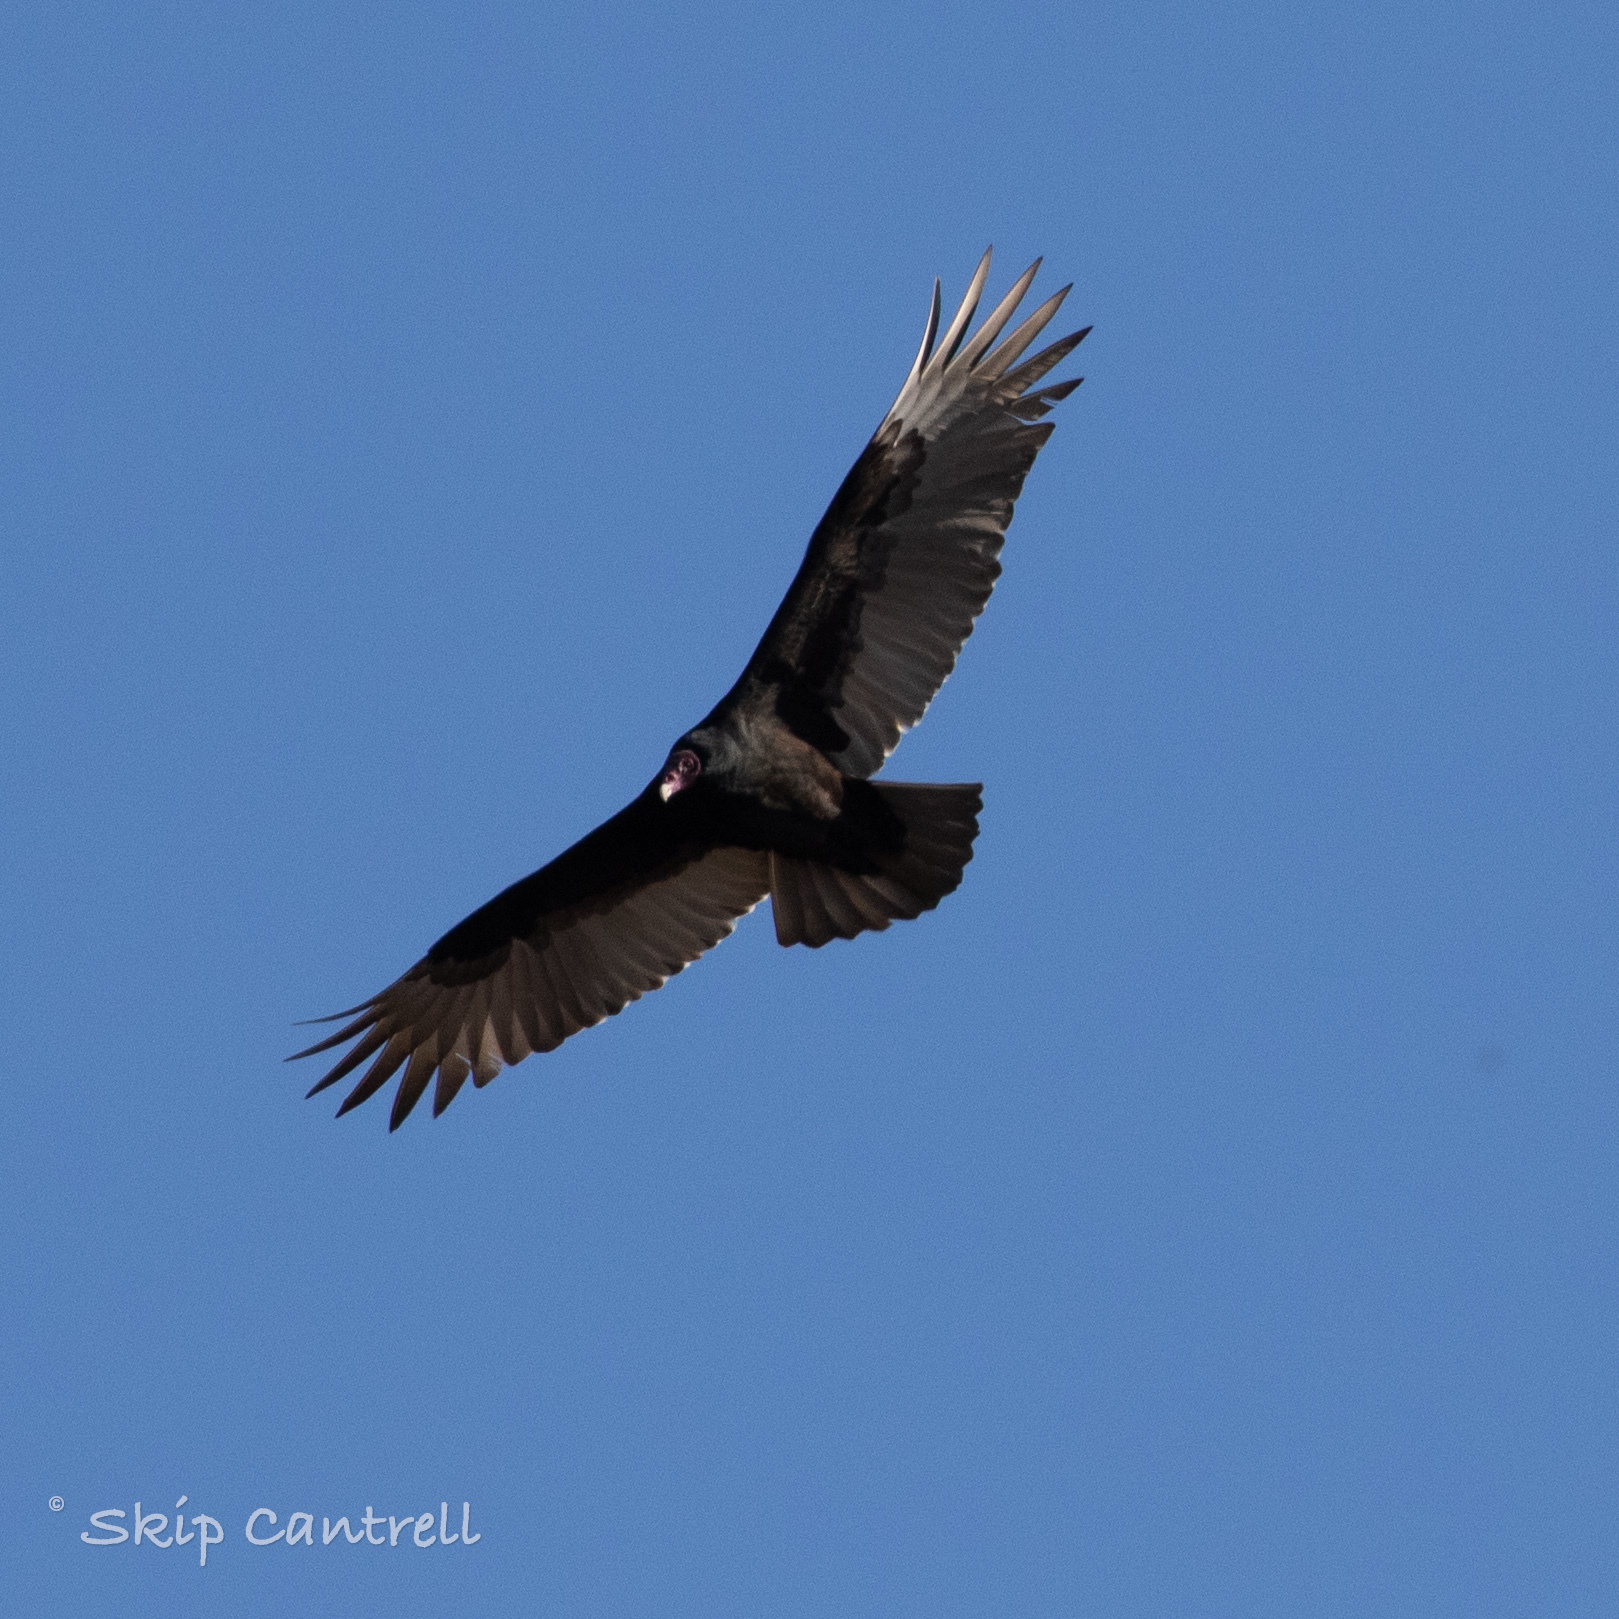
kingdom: Animalia
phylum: Chordata
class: Aves
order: Accipitriformes
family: Cathartidae
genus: Cathartes
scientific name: Cathartes aura
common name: Turkey vulture
